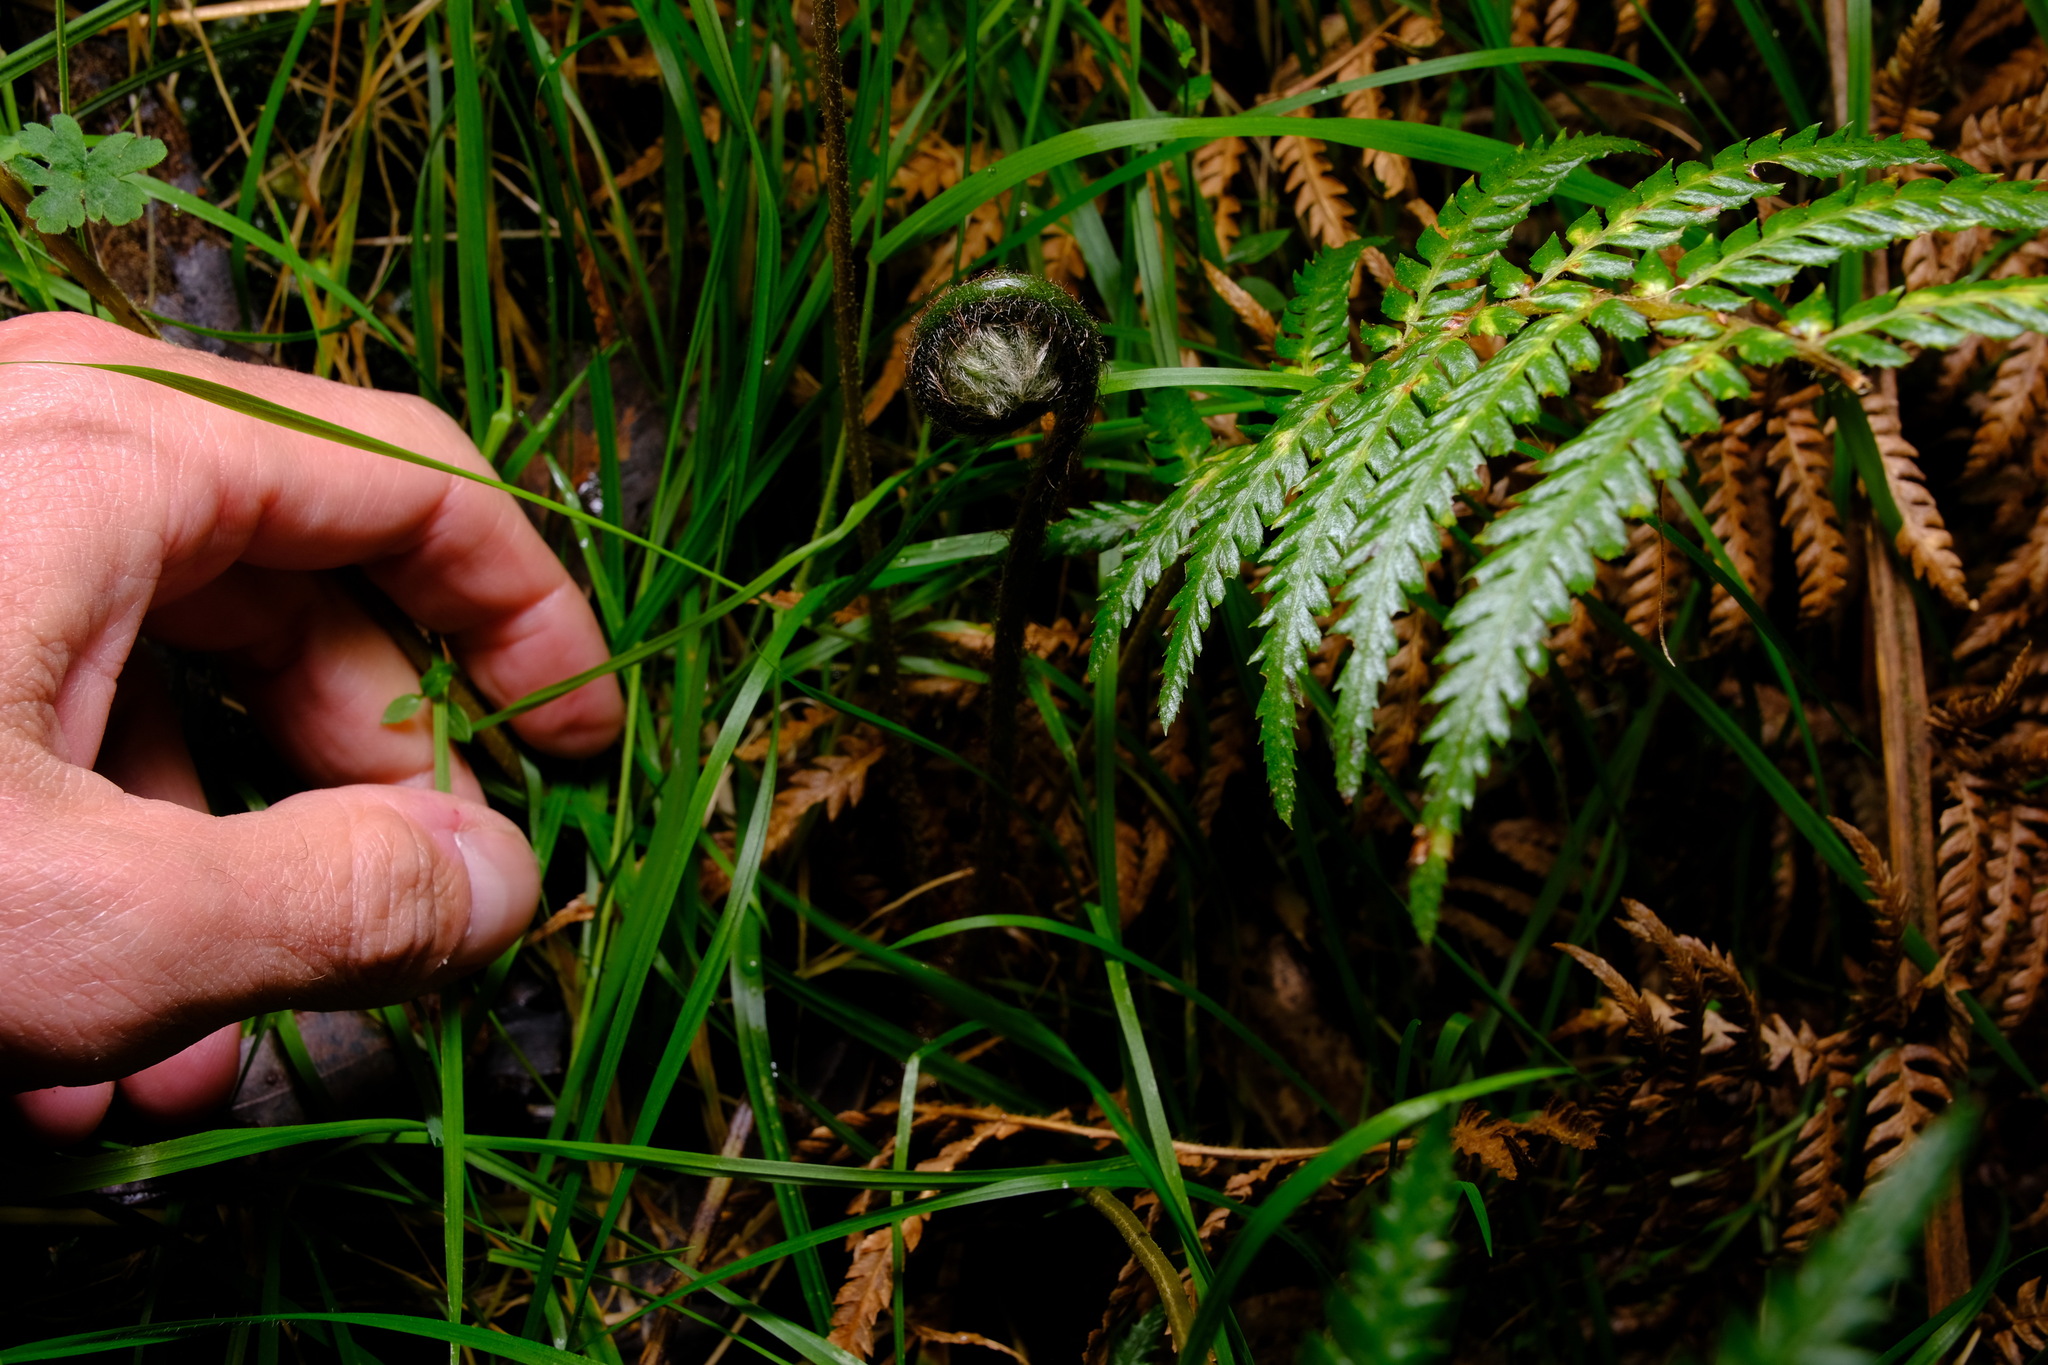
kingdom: Plantae
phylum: Tracheophyta
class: Polypodiopsida
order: Cyatheales
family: Dicksoniaceae
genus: Dicksonia
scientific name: Dicksonia antarctica
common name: Australian treefern
